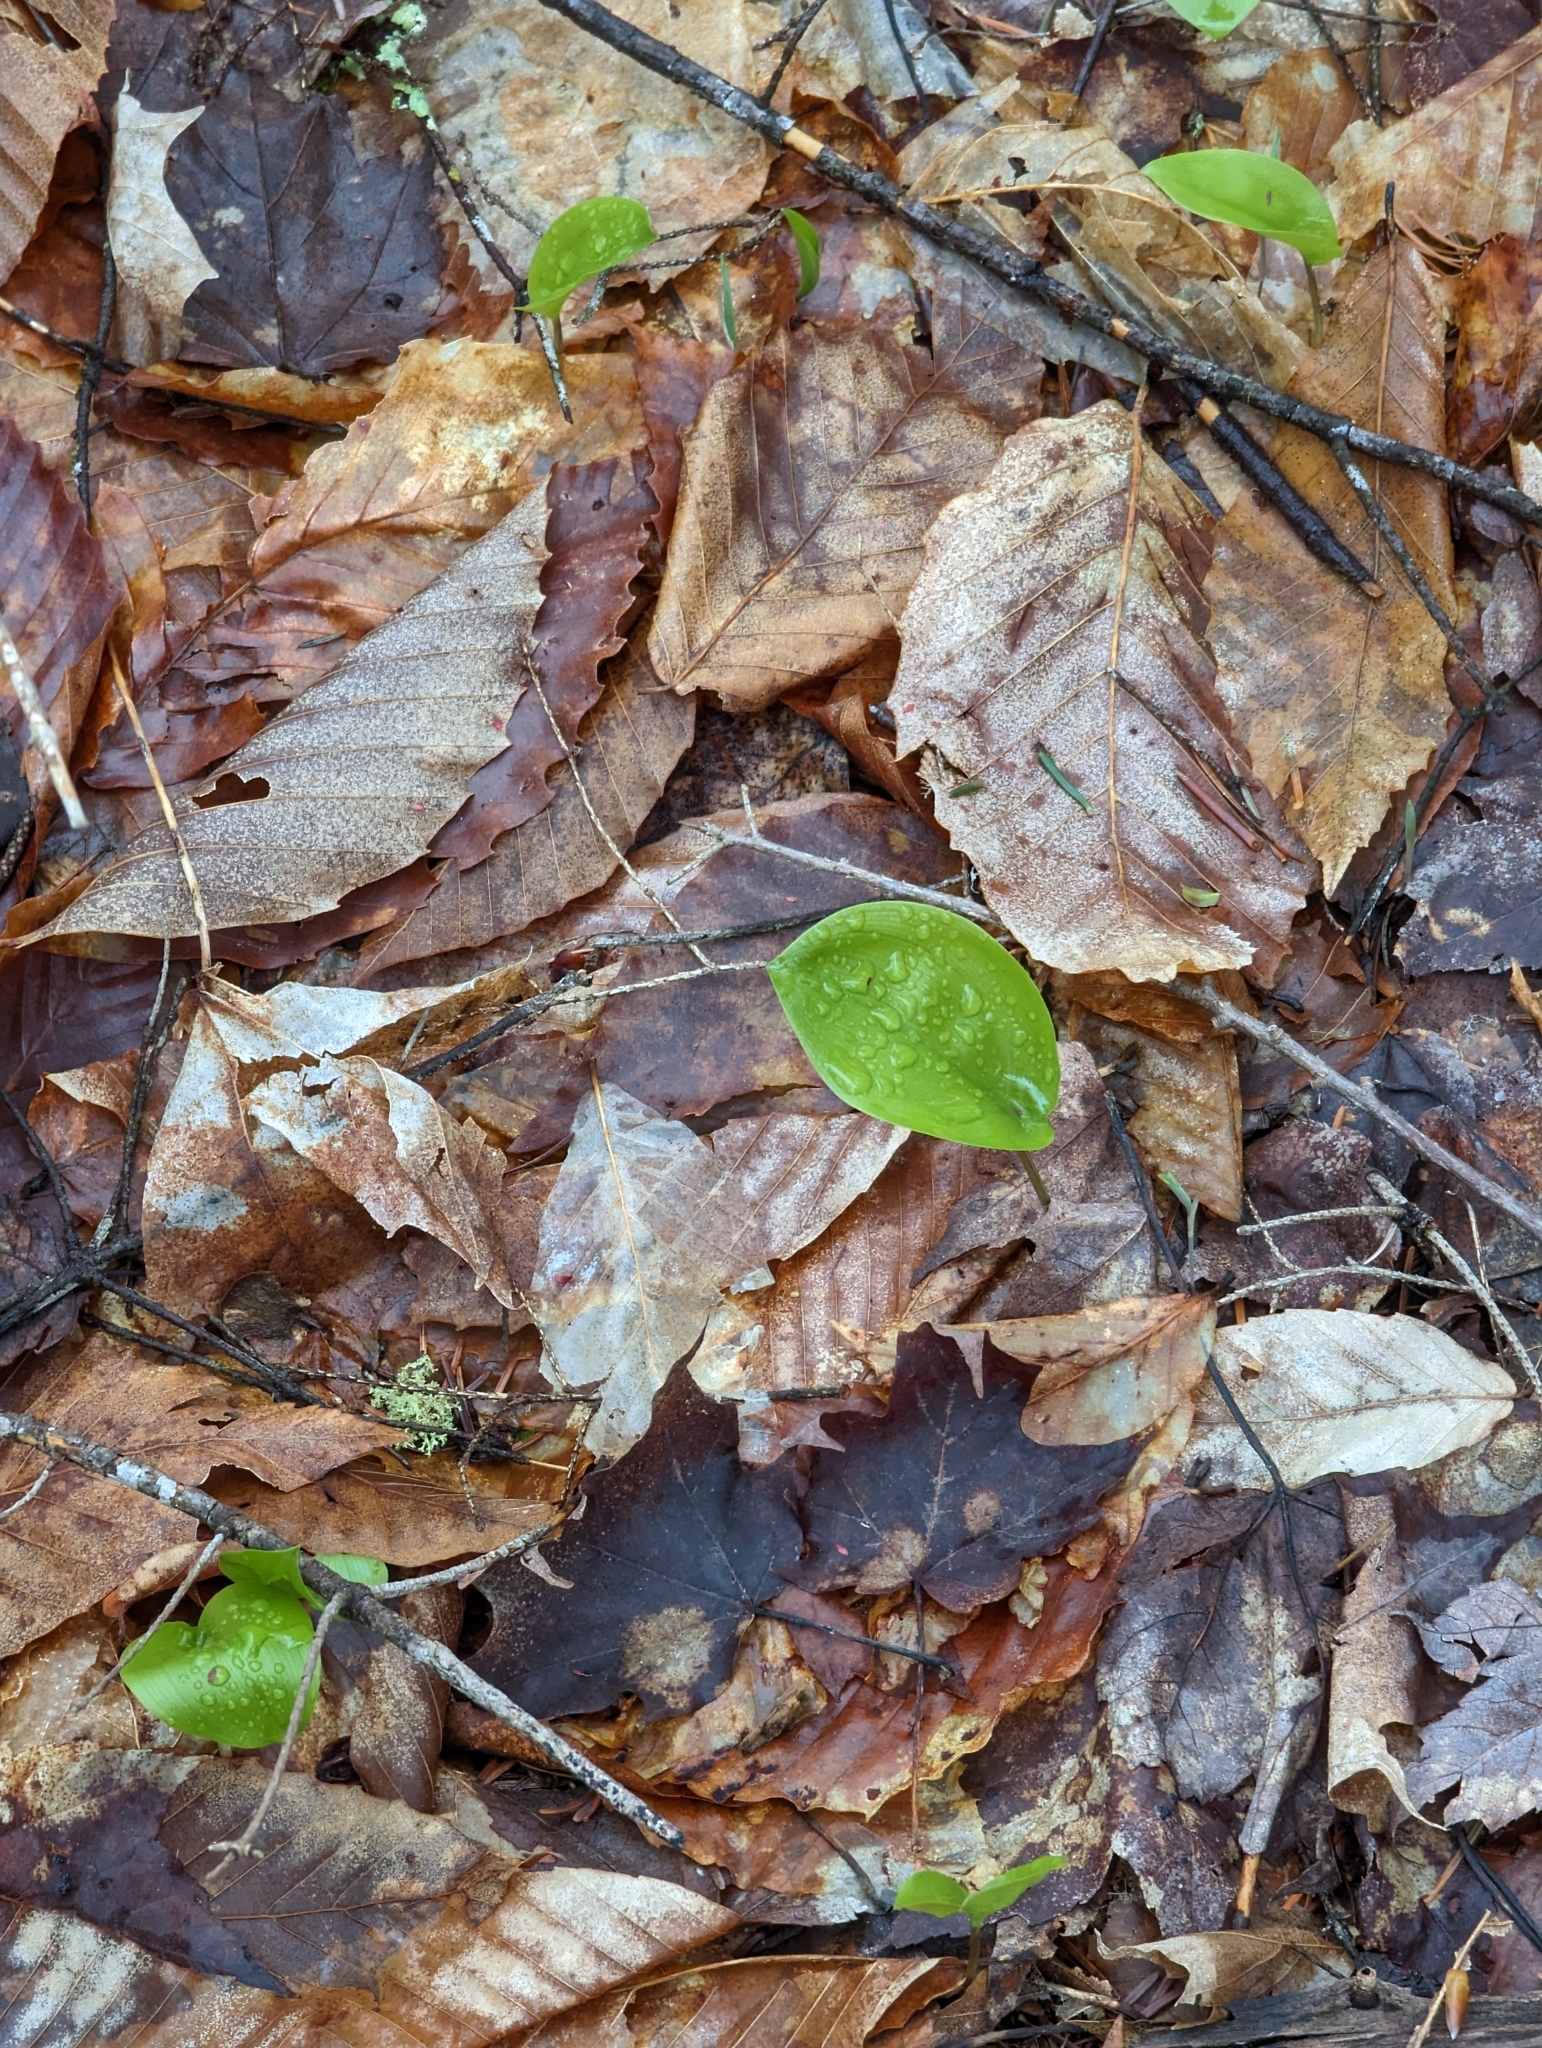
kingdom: Plantae
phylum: Tracheophyta
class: Liliopsida
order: Asparagales
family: Asparagaceae
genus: Maianthemum
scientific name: Maianthemum canadense
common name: False lily-of-the-valley
